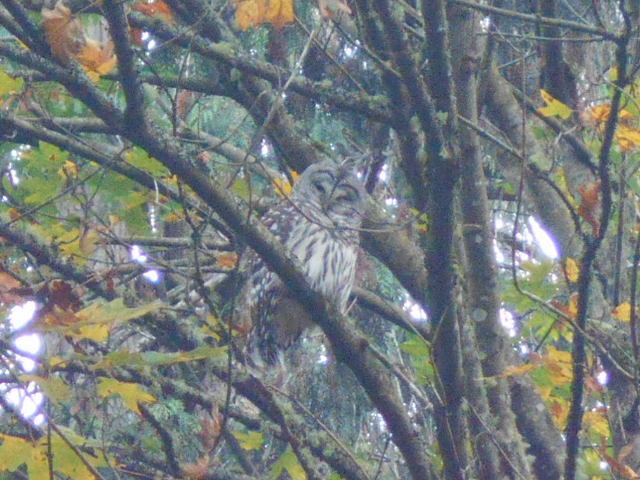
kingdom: Animalia
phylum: Chordata
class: Aves
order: Strigiformes
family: Strigidae
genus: Strix
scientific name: Strix varia
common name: Barred owl
